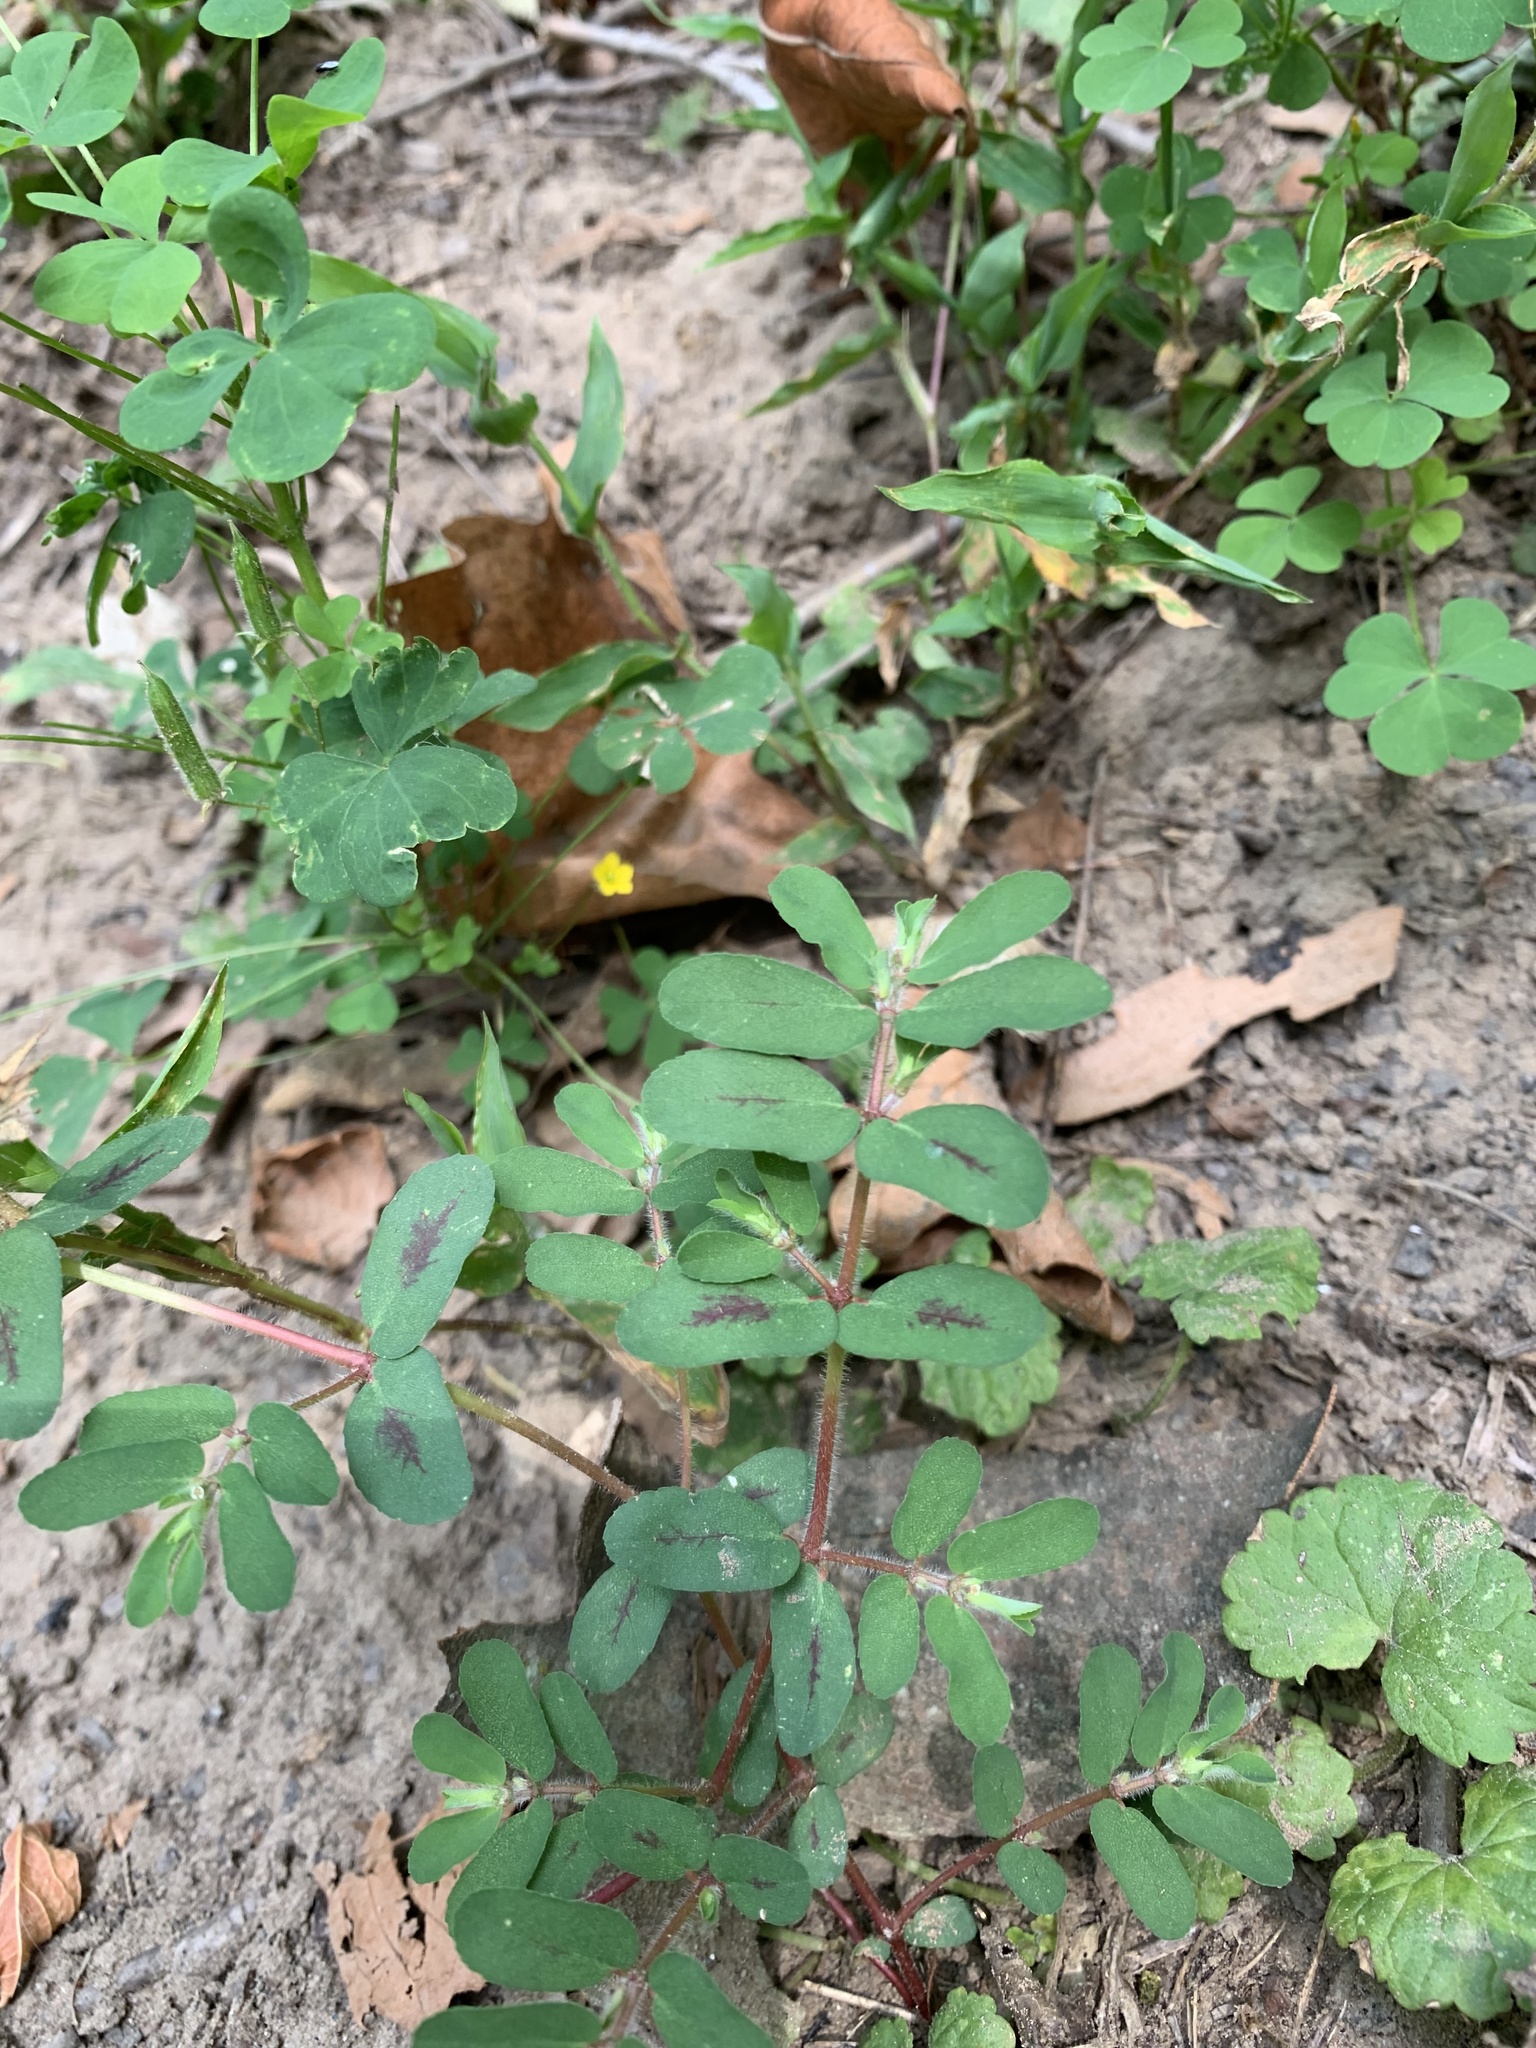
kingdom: Plantae
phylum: Tracheophyta
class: Magnoliopsida
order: Malpighiales
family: Euphorbiaceae
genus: Euphorbia
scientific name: Euphorbia maculata
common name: Spotted spurge
